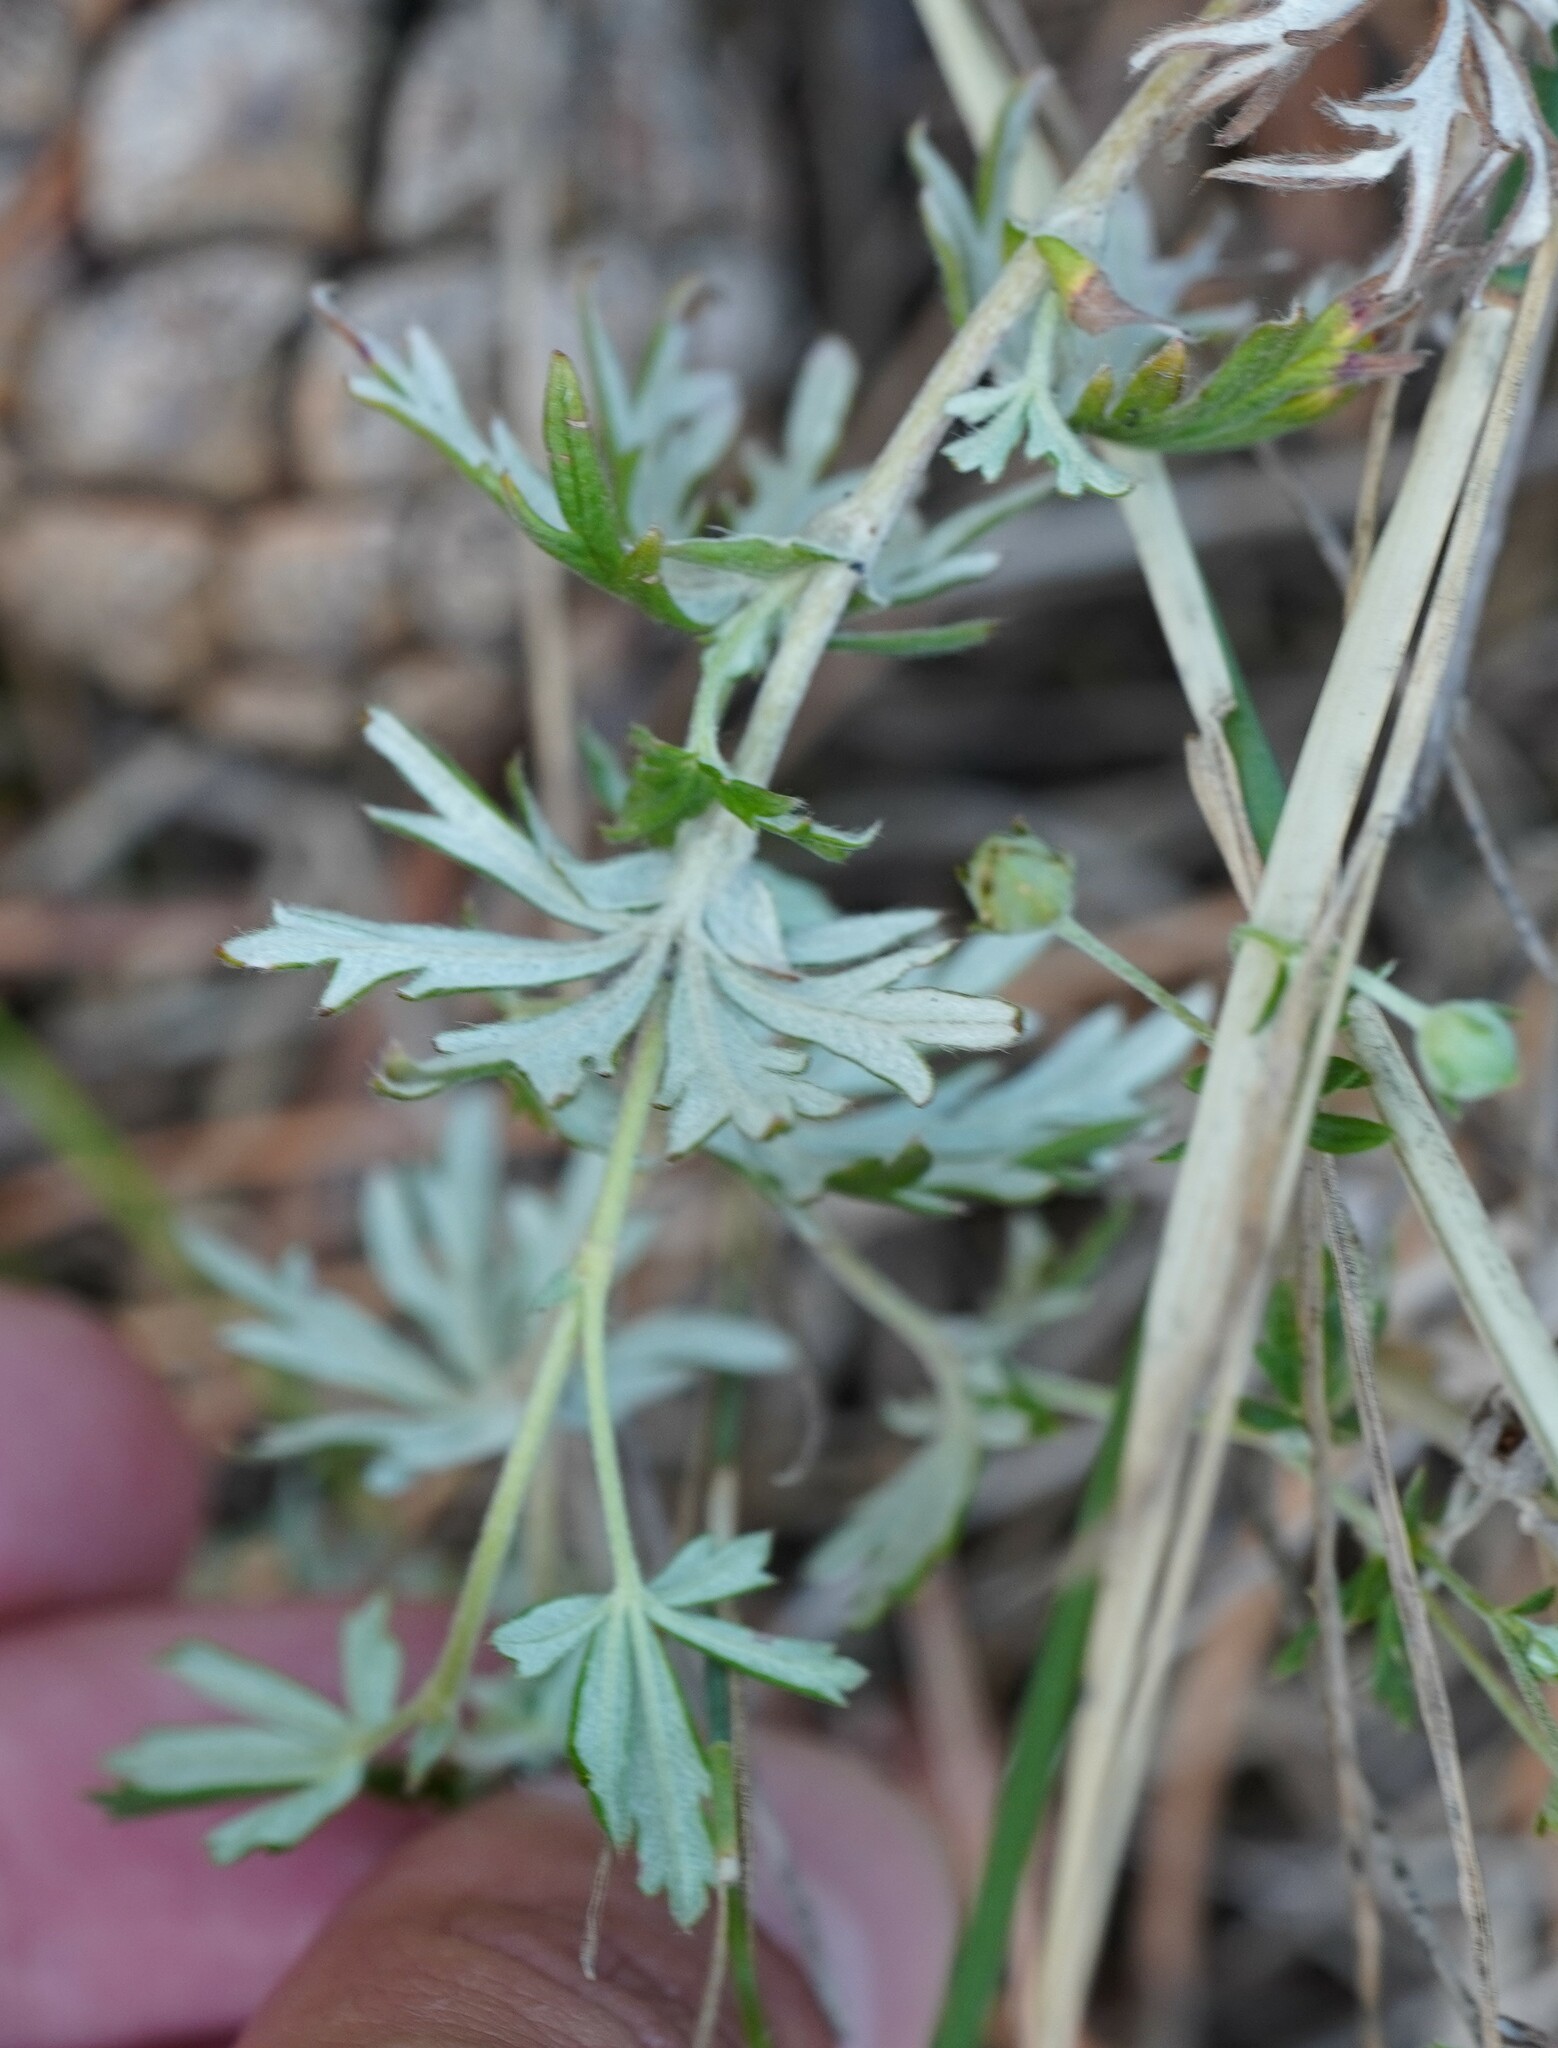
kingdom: Plantae
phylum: Tracheophyta
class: Magnoliopsida
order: Rosales
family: Rosaceae
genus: Potentilla
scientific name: Potentilla argentea
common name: Hoary cinquefoil
